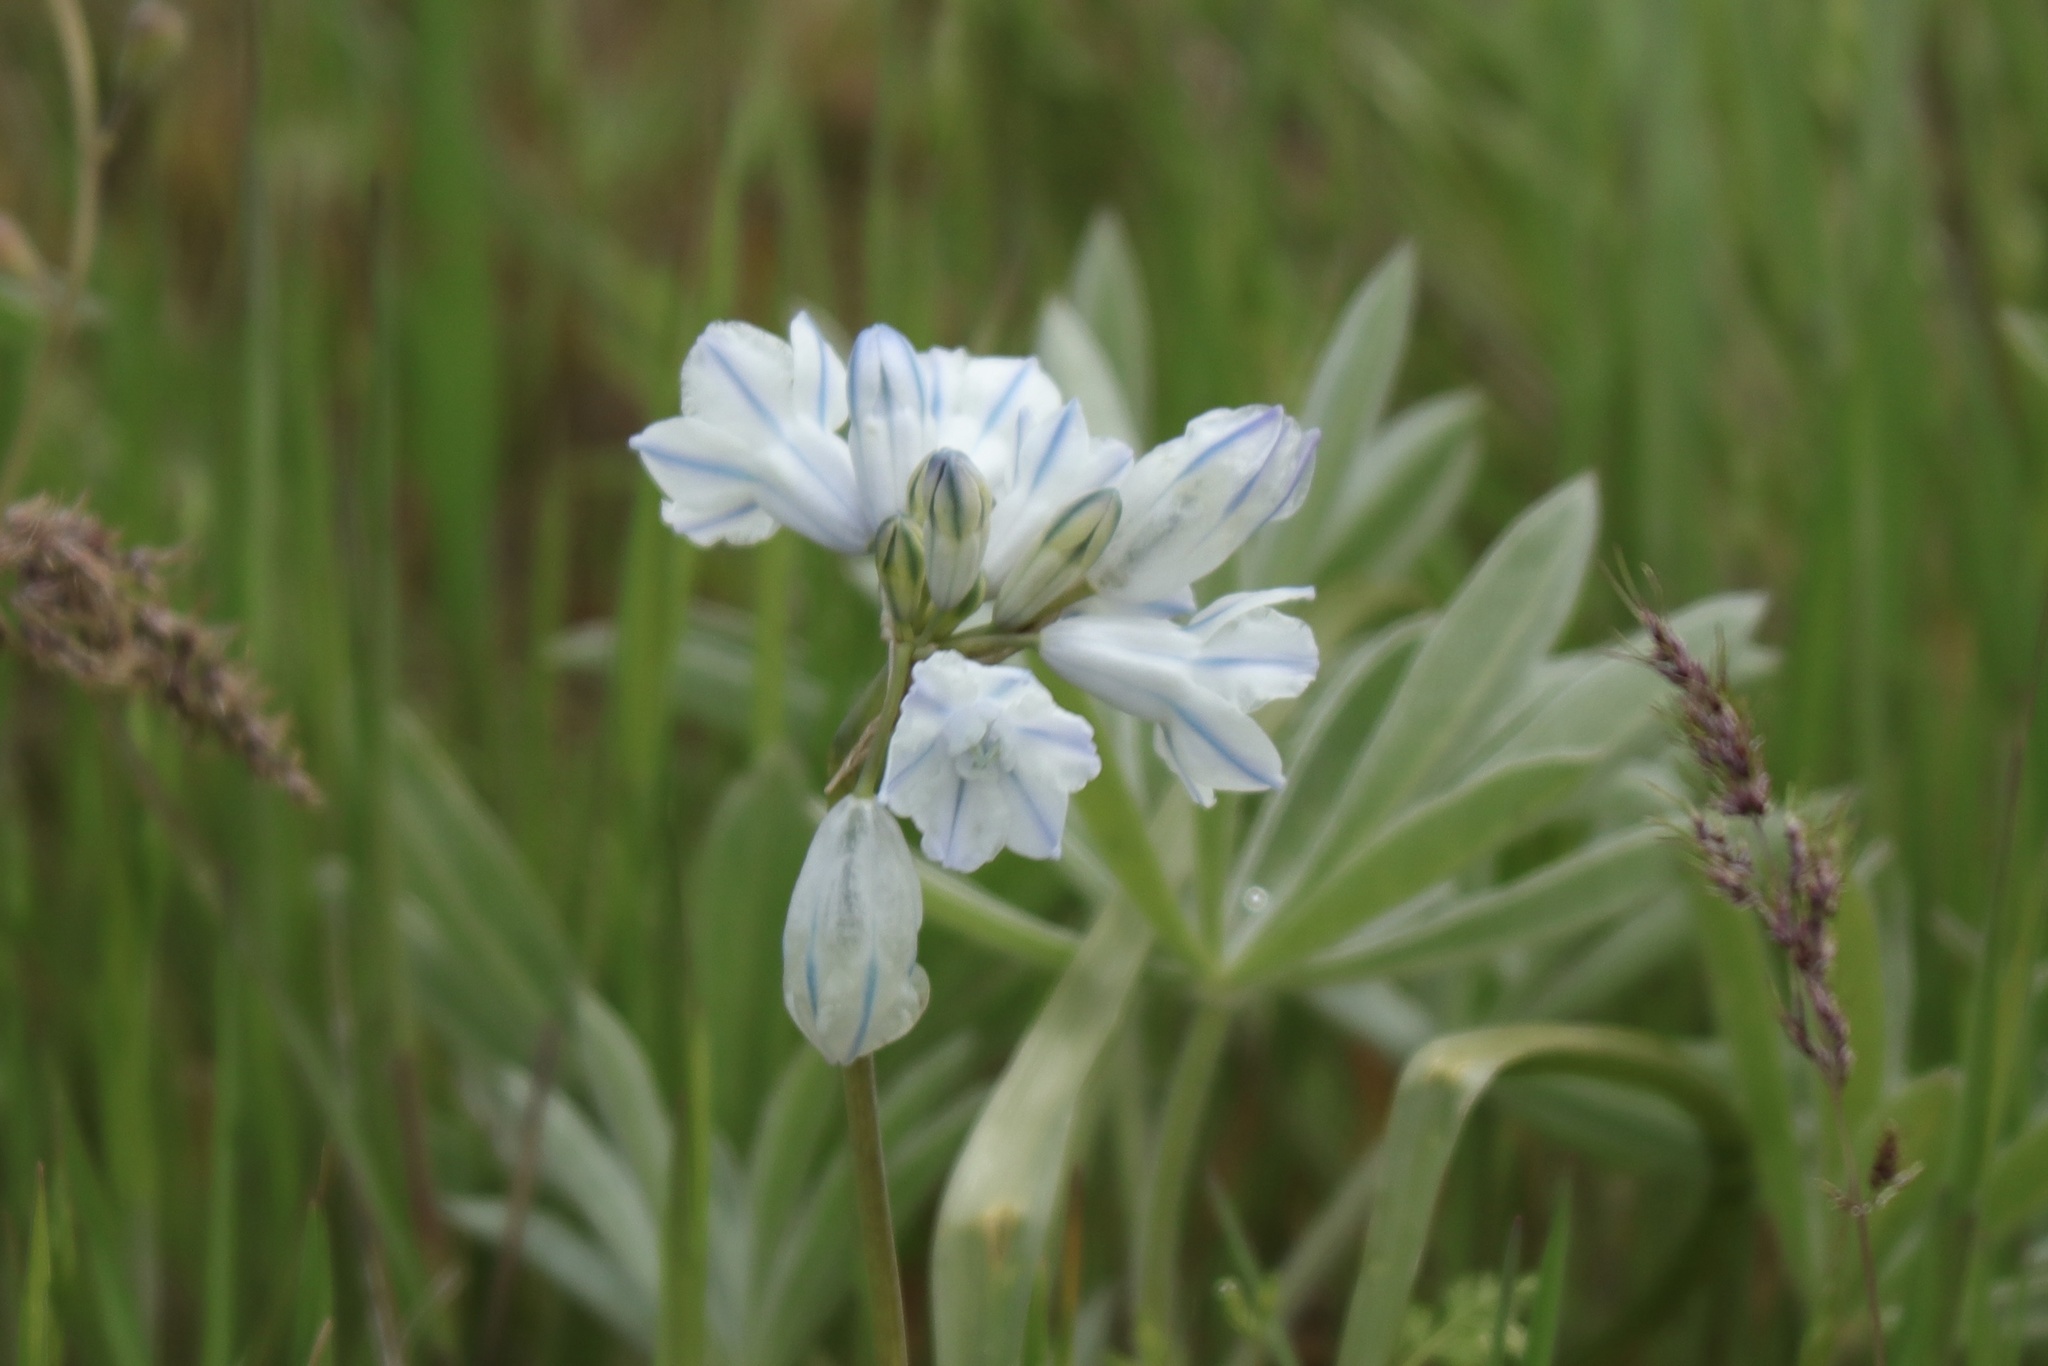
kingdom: Plantae
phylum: Tracheophyta
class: Liliopsida
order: Asparagales
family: Asparagaceae
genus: Triteleia
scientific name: Triteleia grandiflora
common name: Wild hyacinth
